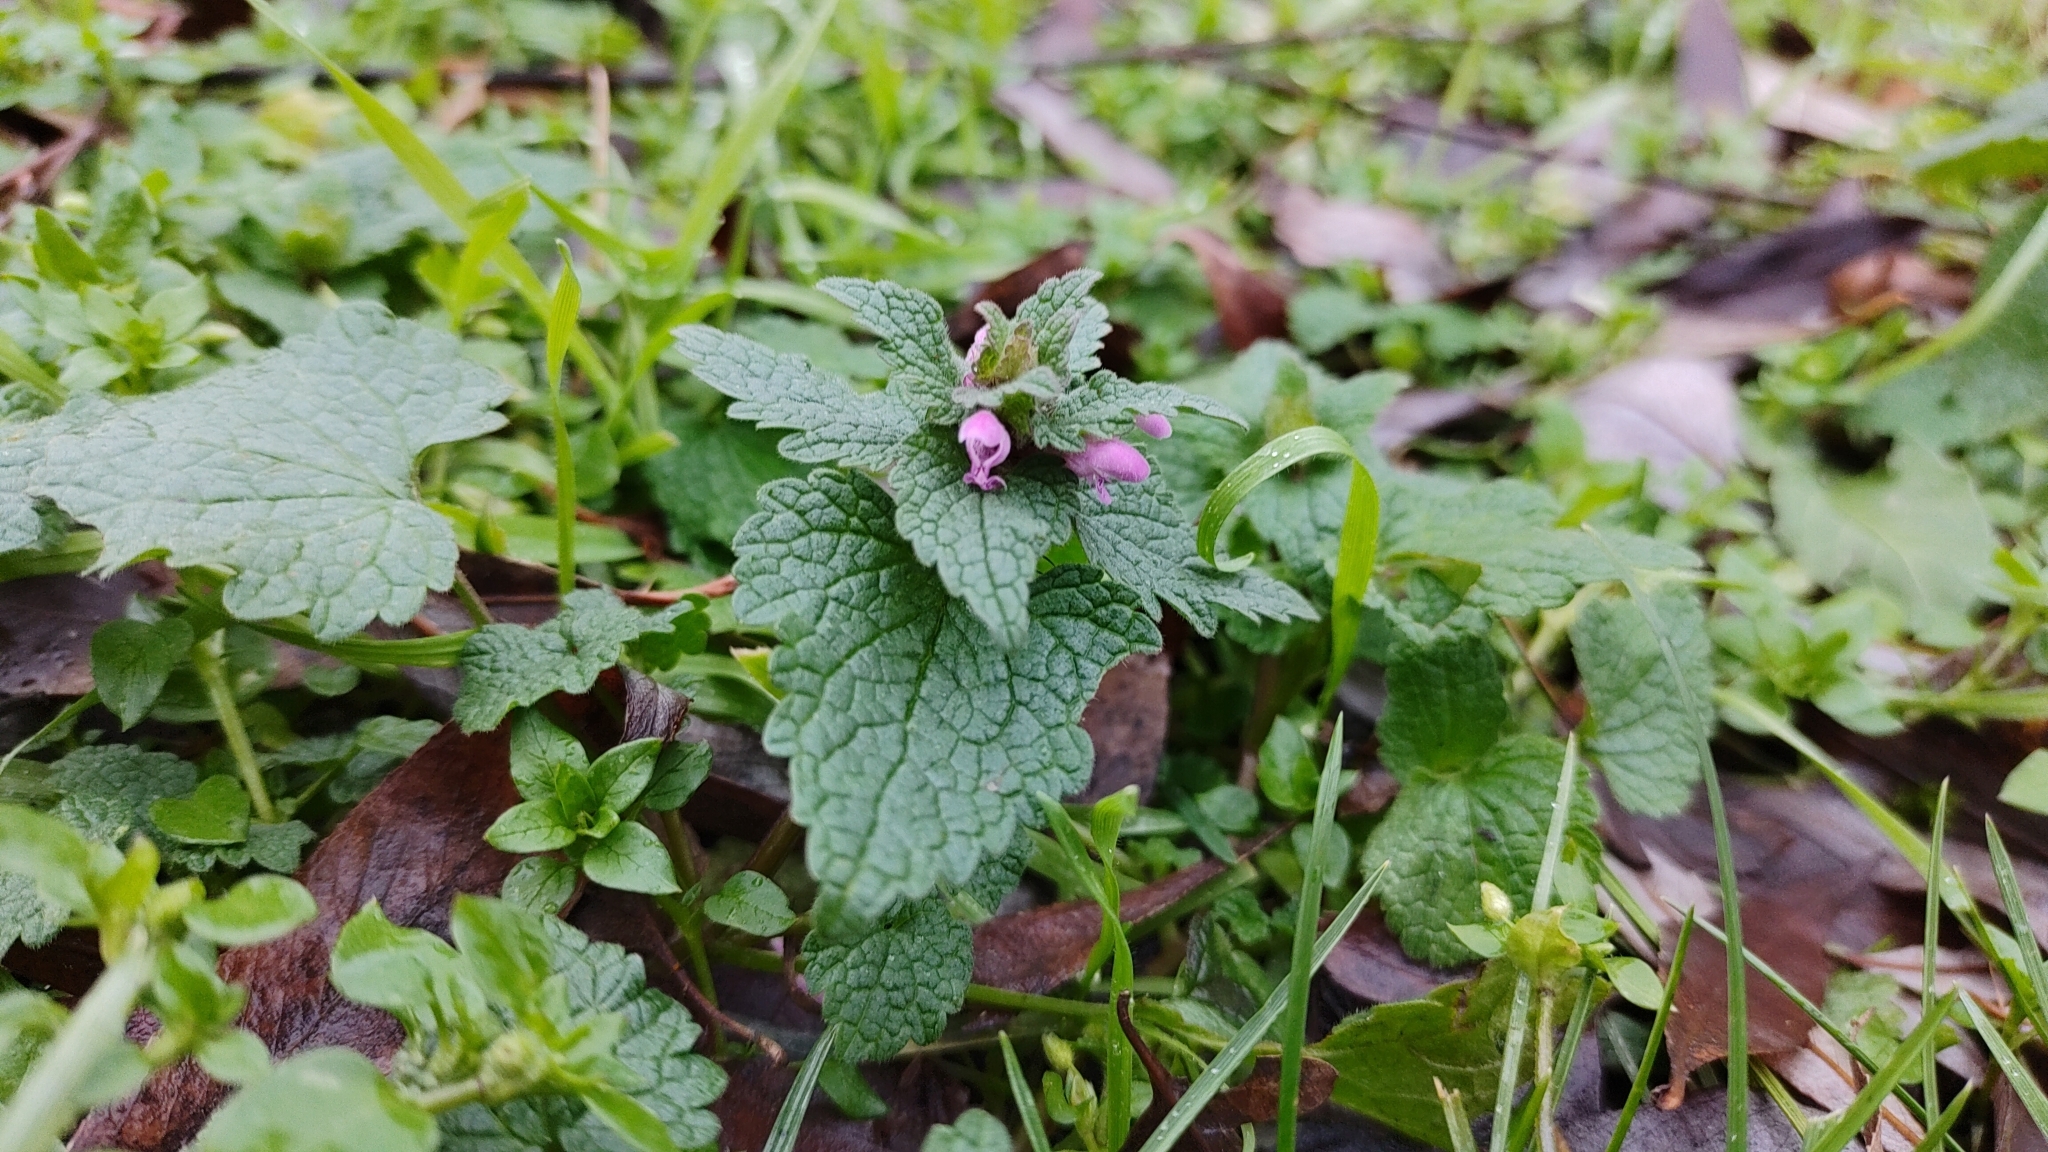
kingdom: Plantae
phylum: Tracheophyta
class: Magnoliopsida
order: Lamiales
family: Lamiaceae
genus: Lamium
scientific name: Lamium purpureum
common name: Red dead-nettle
